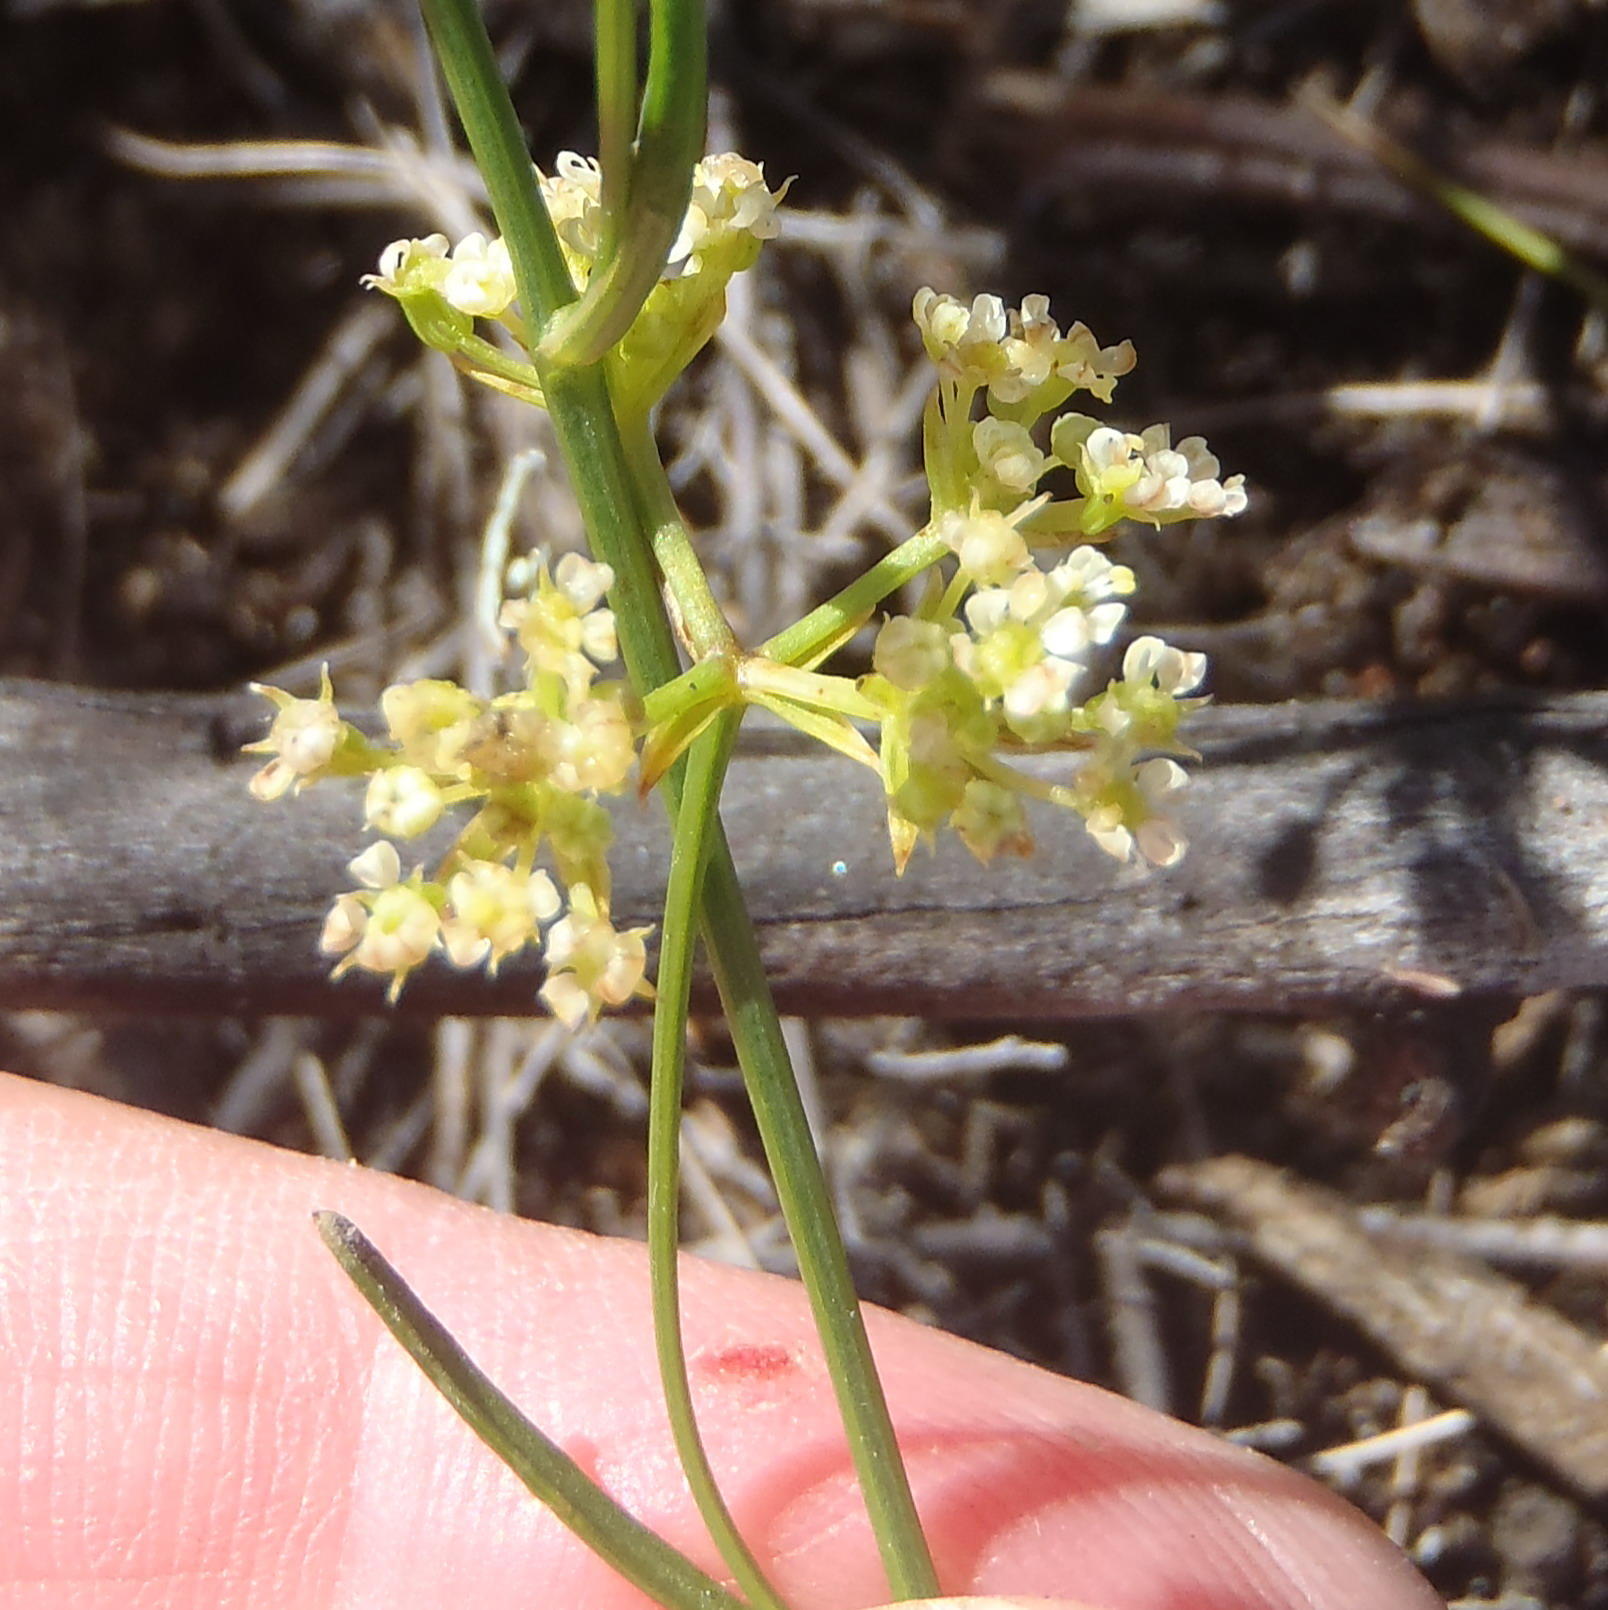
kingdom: Plantae
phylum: Tracheophyta
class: Magnoliopsida
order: Apiales
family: Apiaceae
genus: Itasina
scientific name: Itasina filifolia
